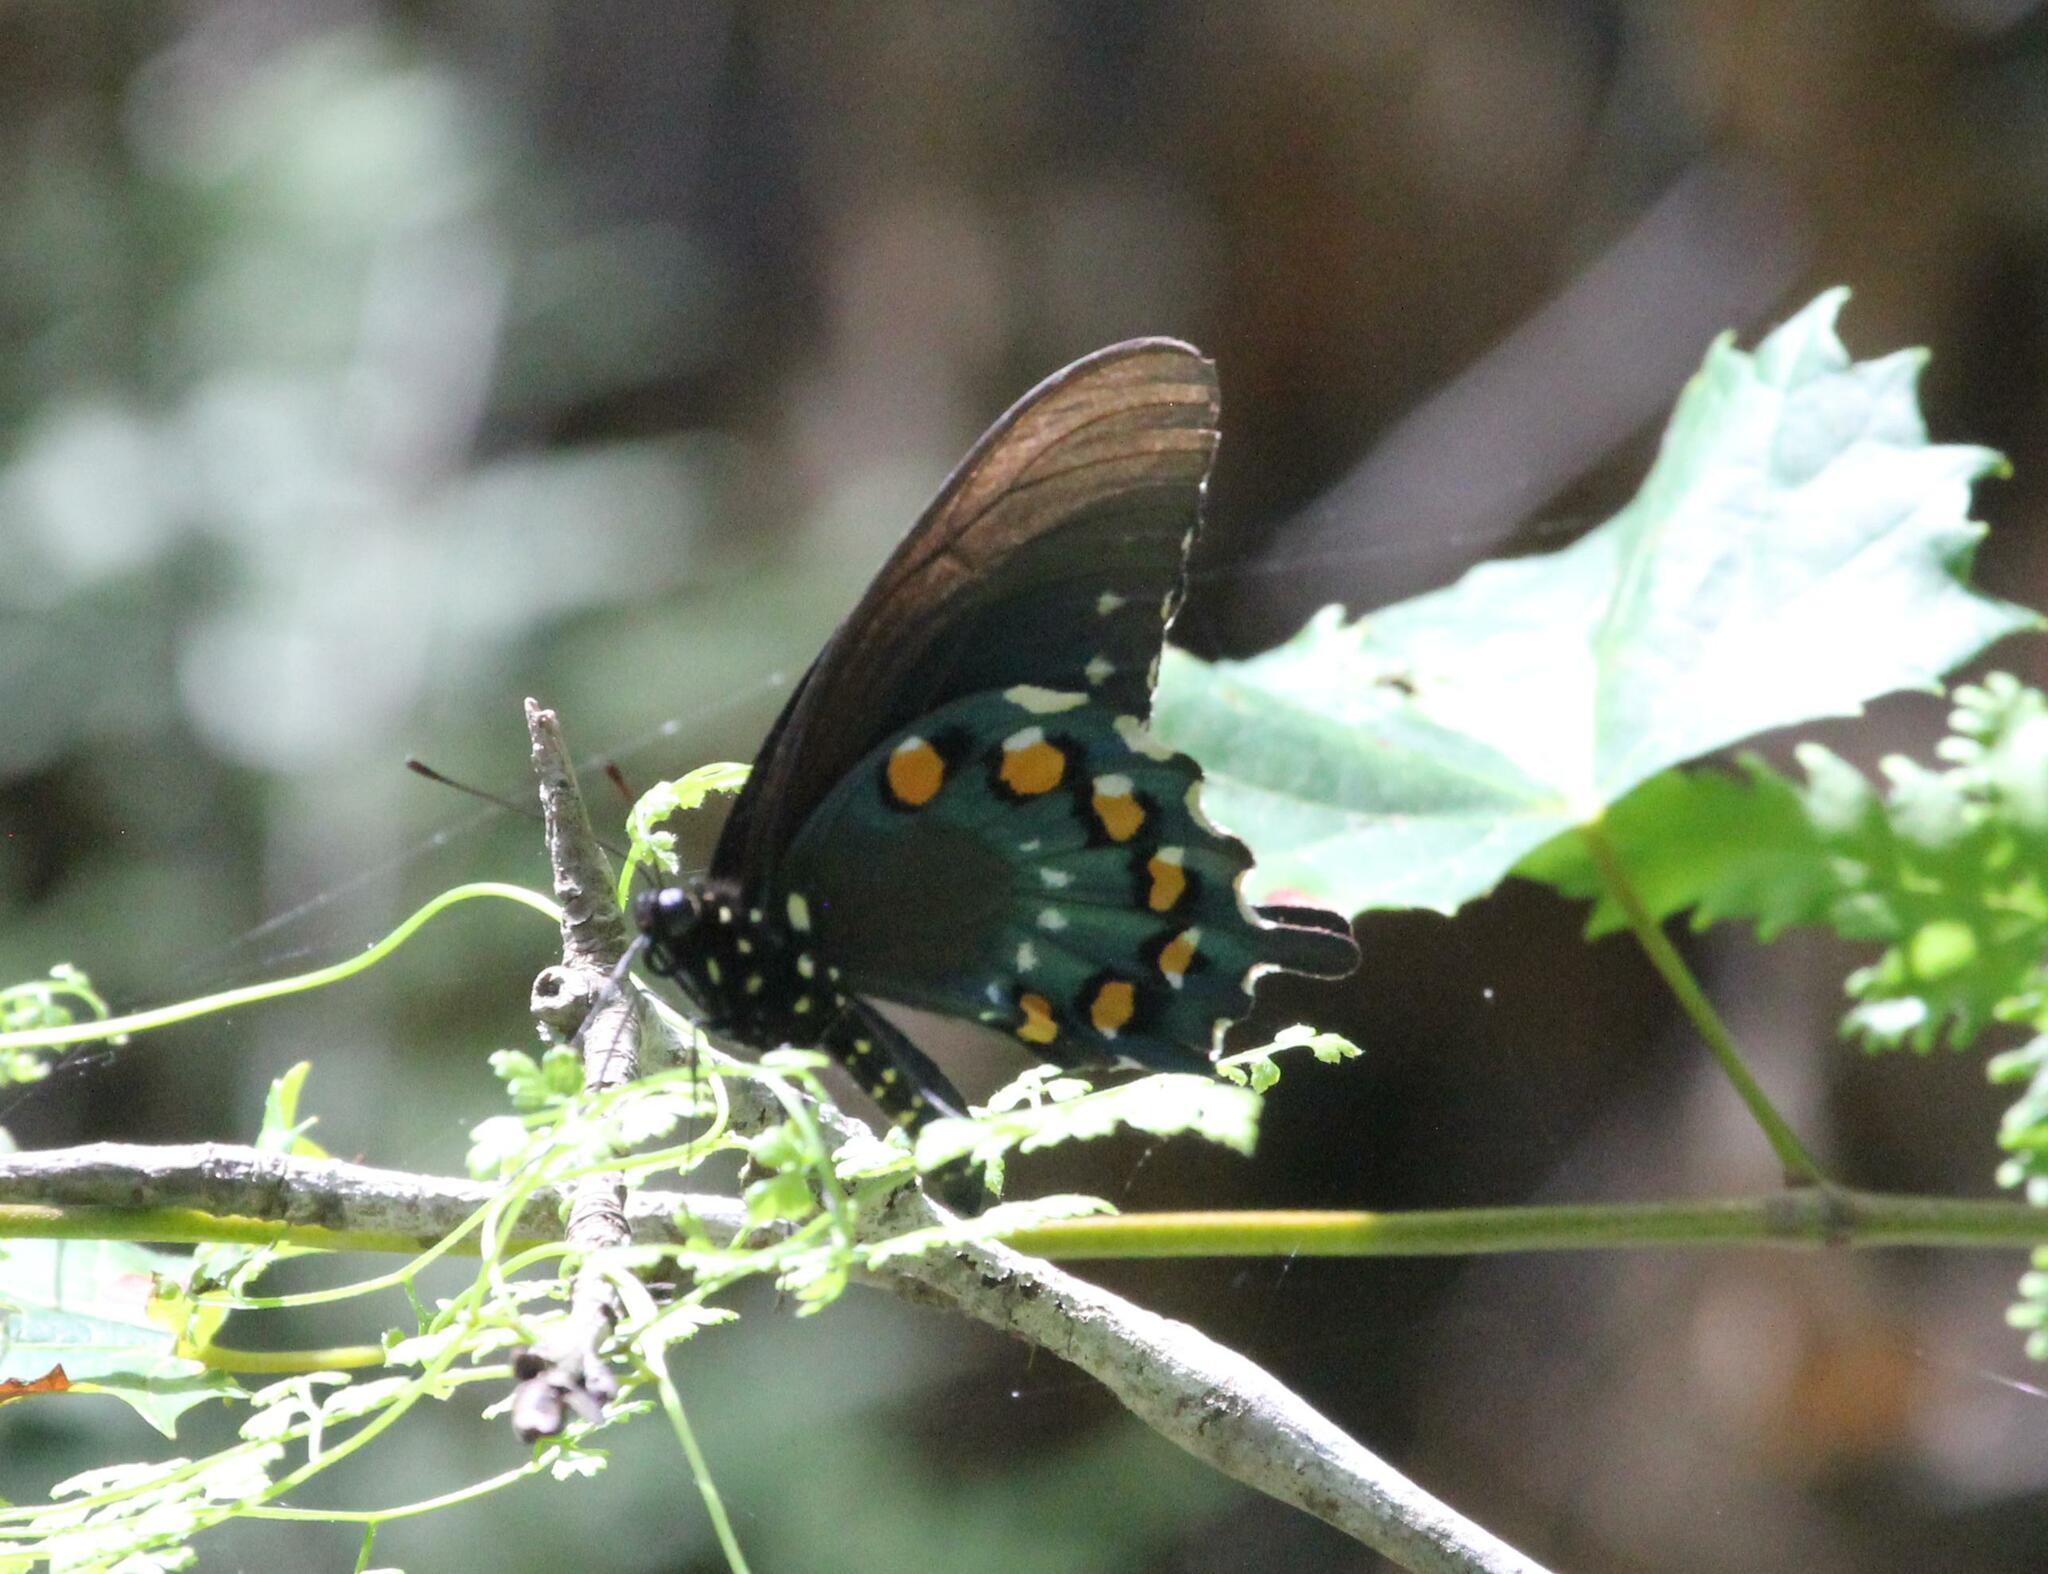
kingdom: Animalia
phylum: Arthropoda
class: Insecta
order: Lepidoptera
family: Papilionidae
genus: Battus
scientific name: Battus philenor
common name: Pipevine swallowtail
